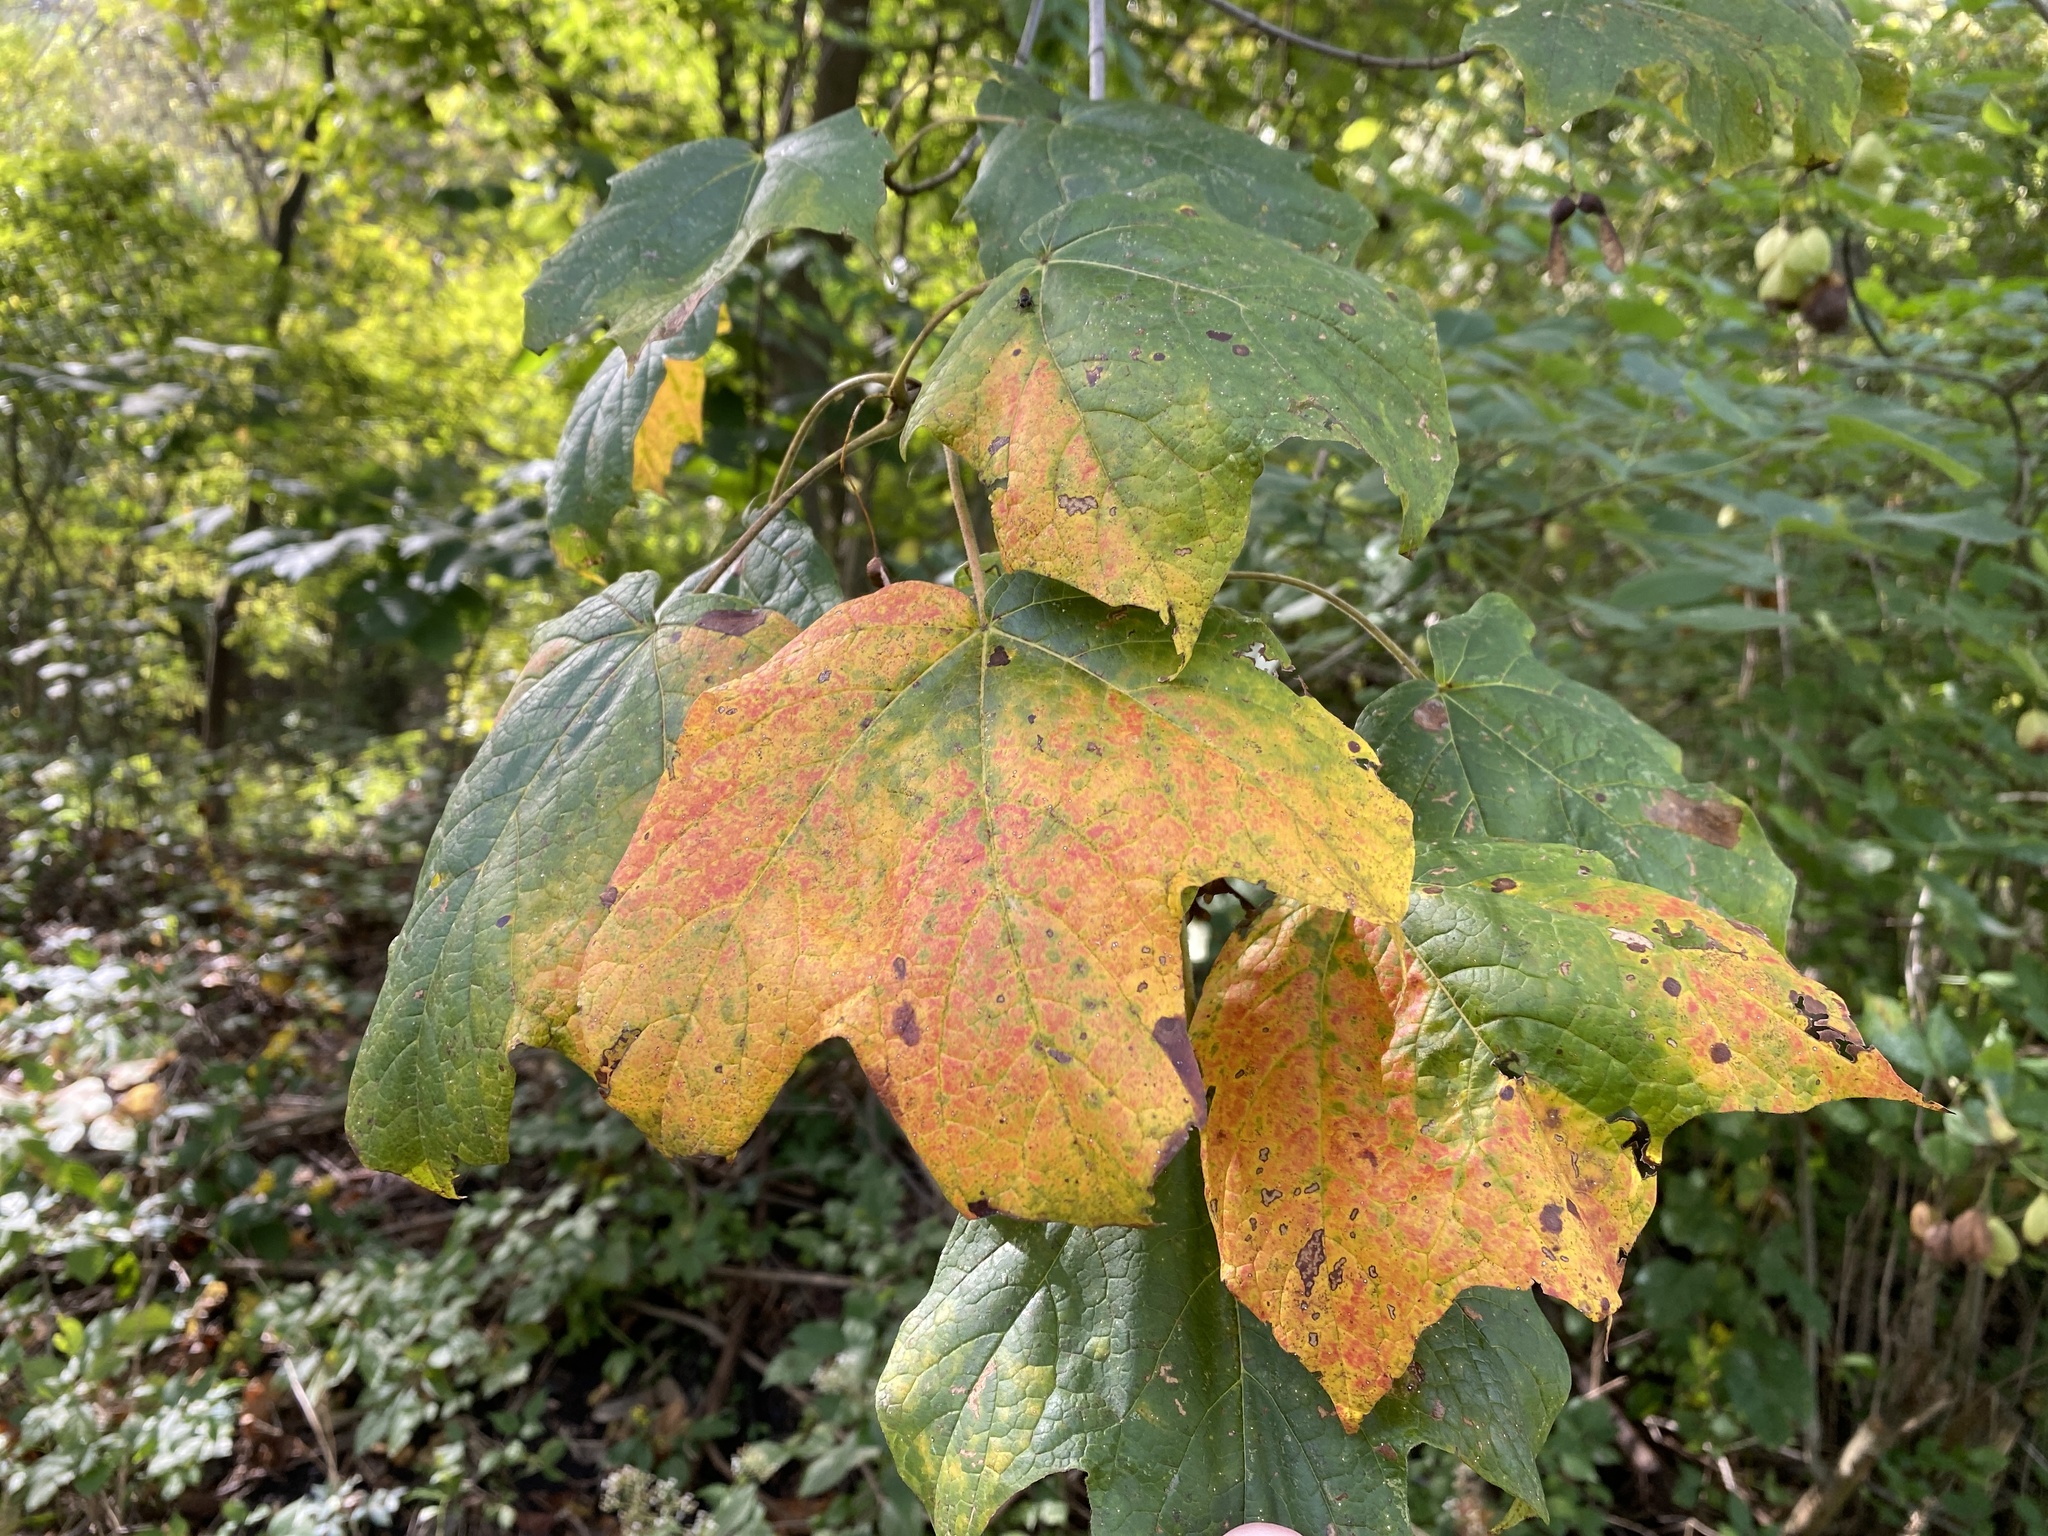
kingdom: Plantae
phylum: Tracheophyta
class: Magnoliopsida
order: Sapindales
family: Sapindaceae
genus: Acer
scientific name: Acer nigrum
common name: Black maple
